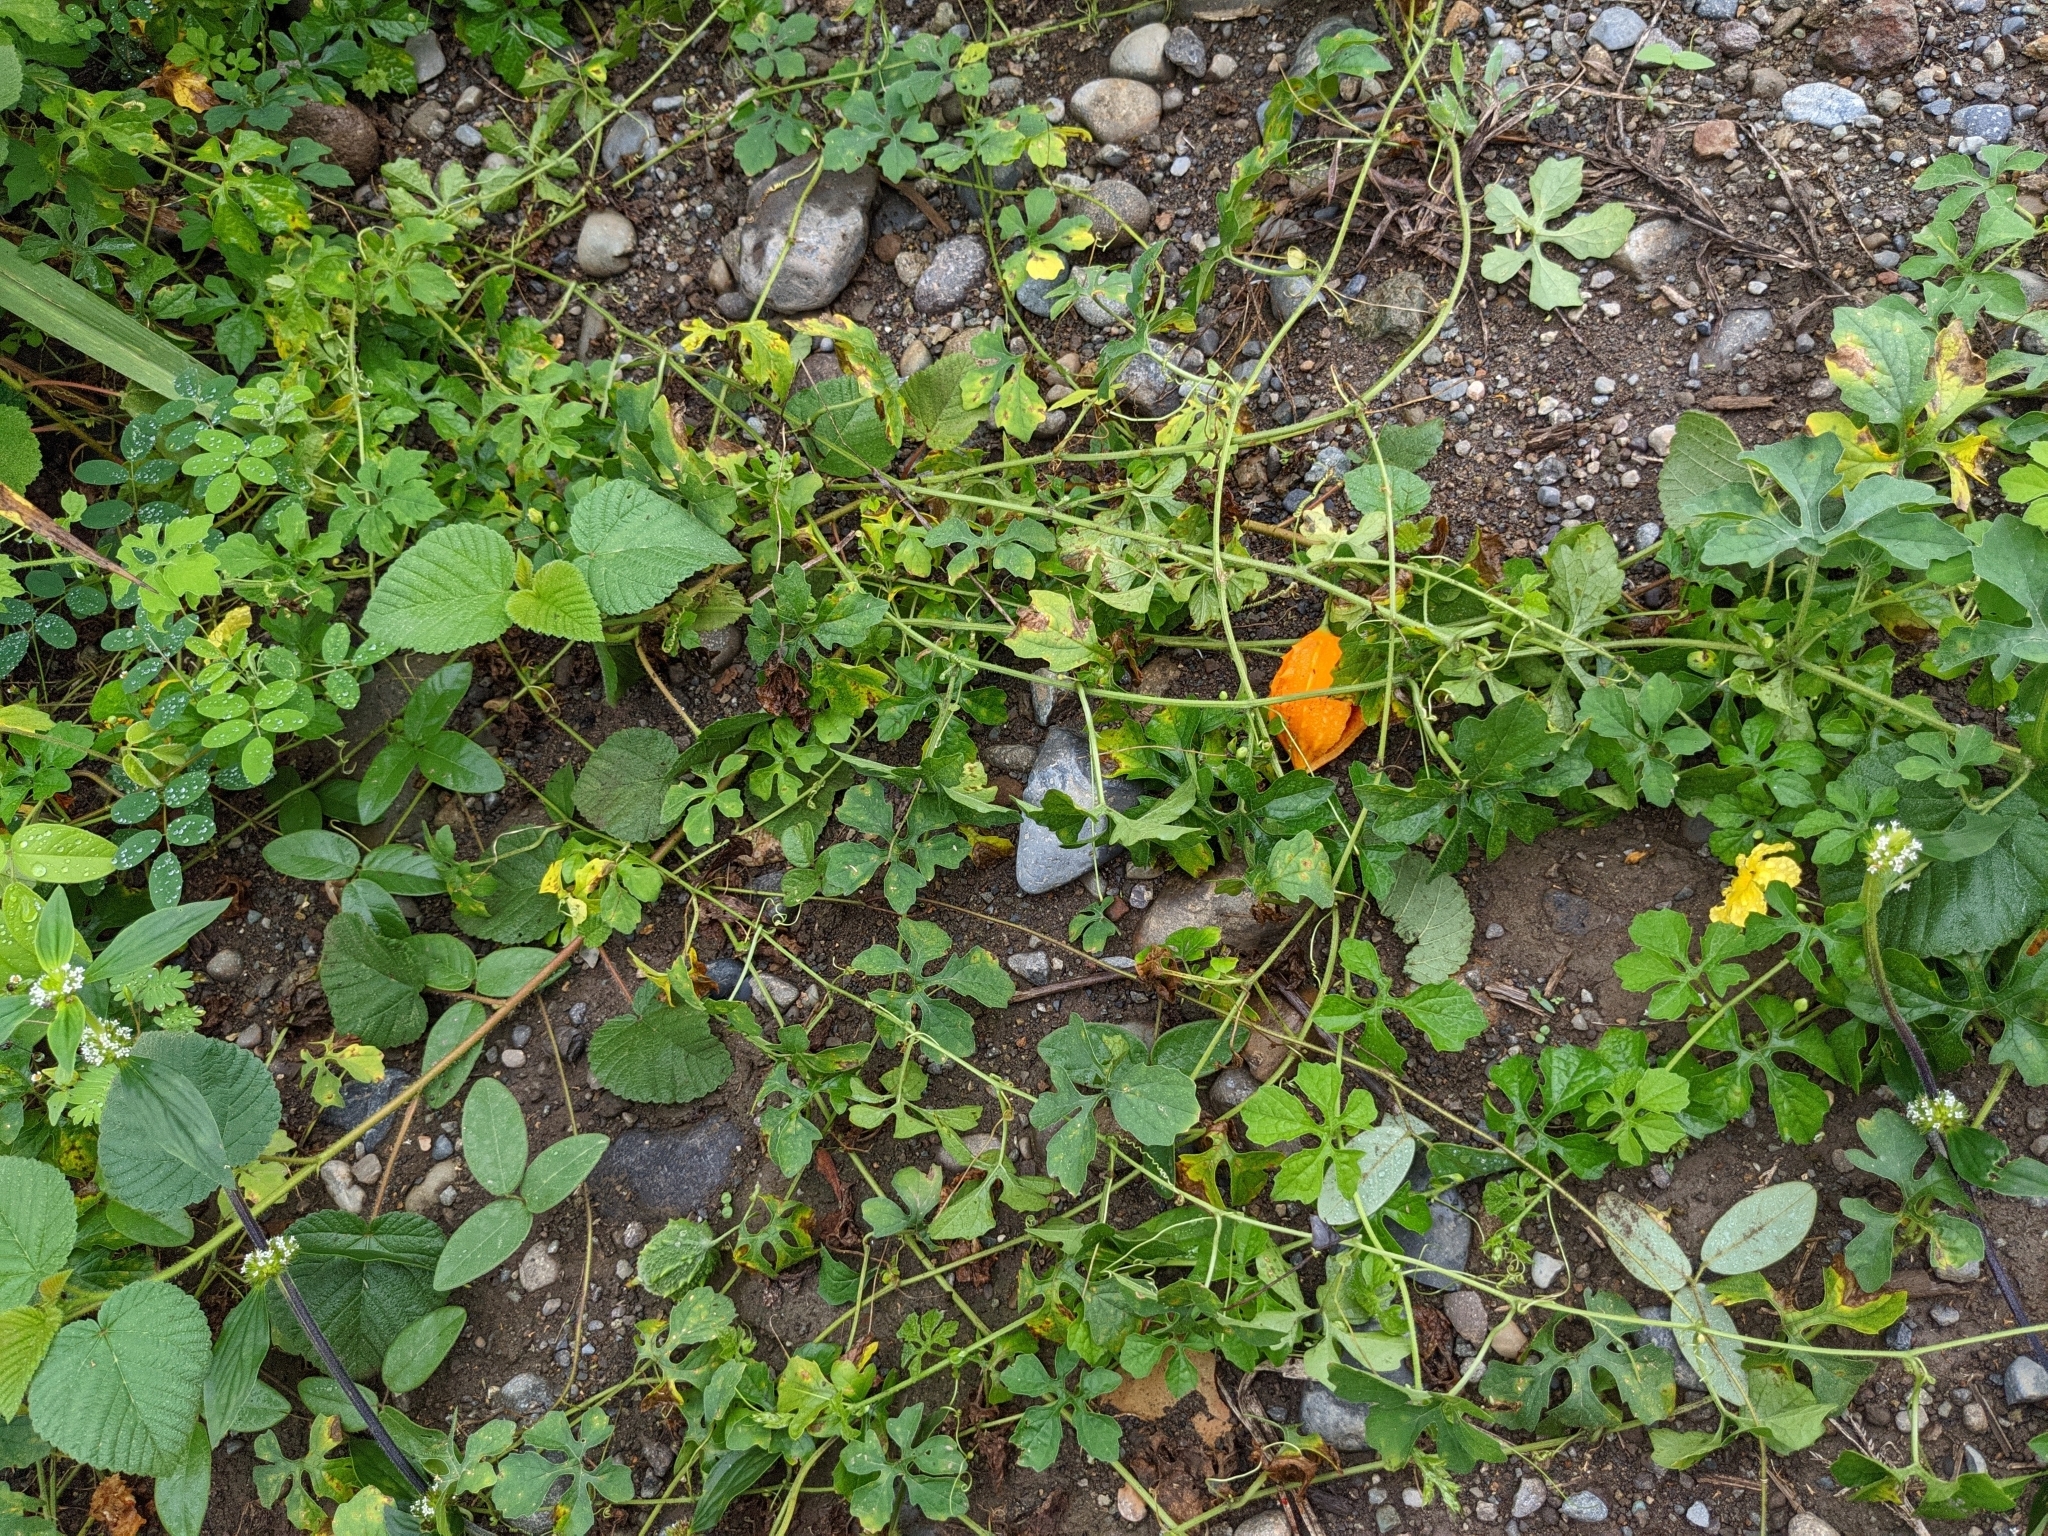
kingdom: Plantae
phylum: Tracheophyta
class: Magnoliopsida
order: Cucurbitales
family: Cucurbitaceae
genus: Momordica
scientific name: Momordica charantia
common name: Balsampear
